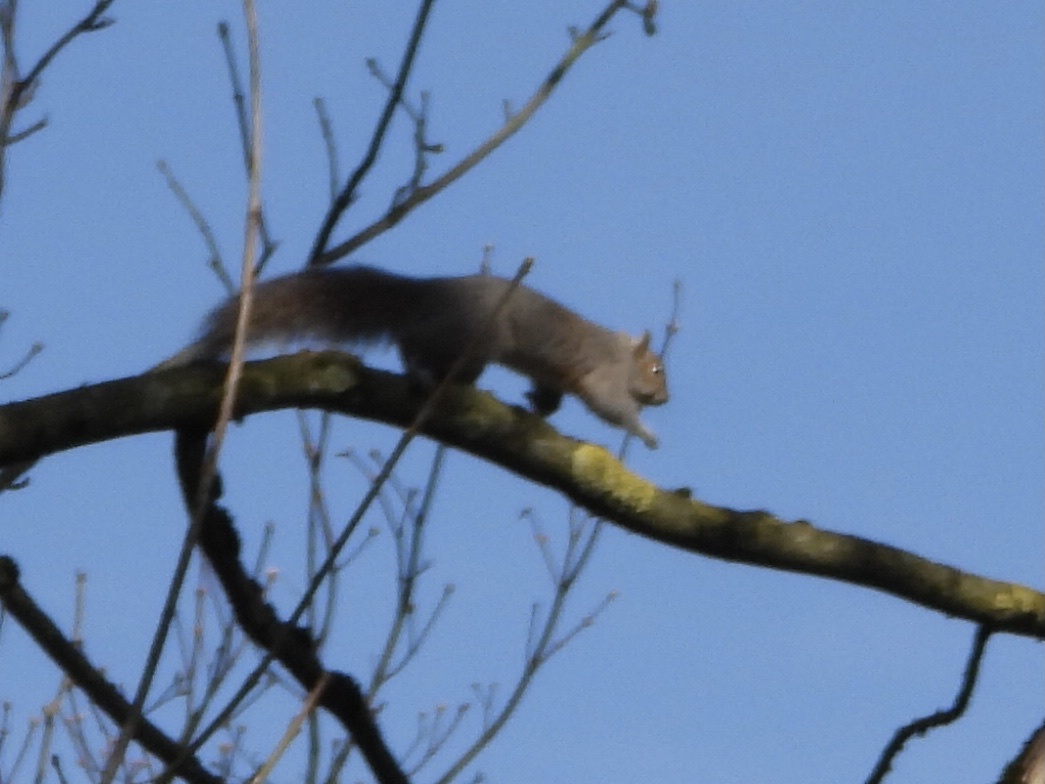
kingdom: Animalia
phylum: Chordata
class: Mammalia
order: Rodentia
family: Sciuridae
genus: Sciurus
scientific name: Sciurus carolinensis
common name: Eastern gray squirrel
